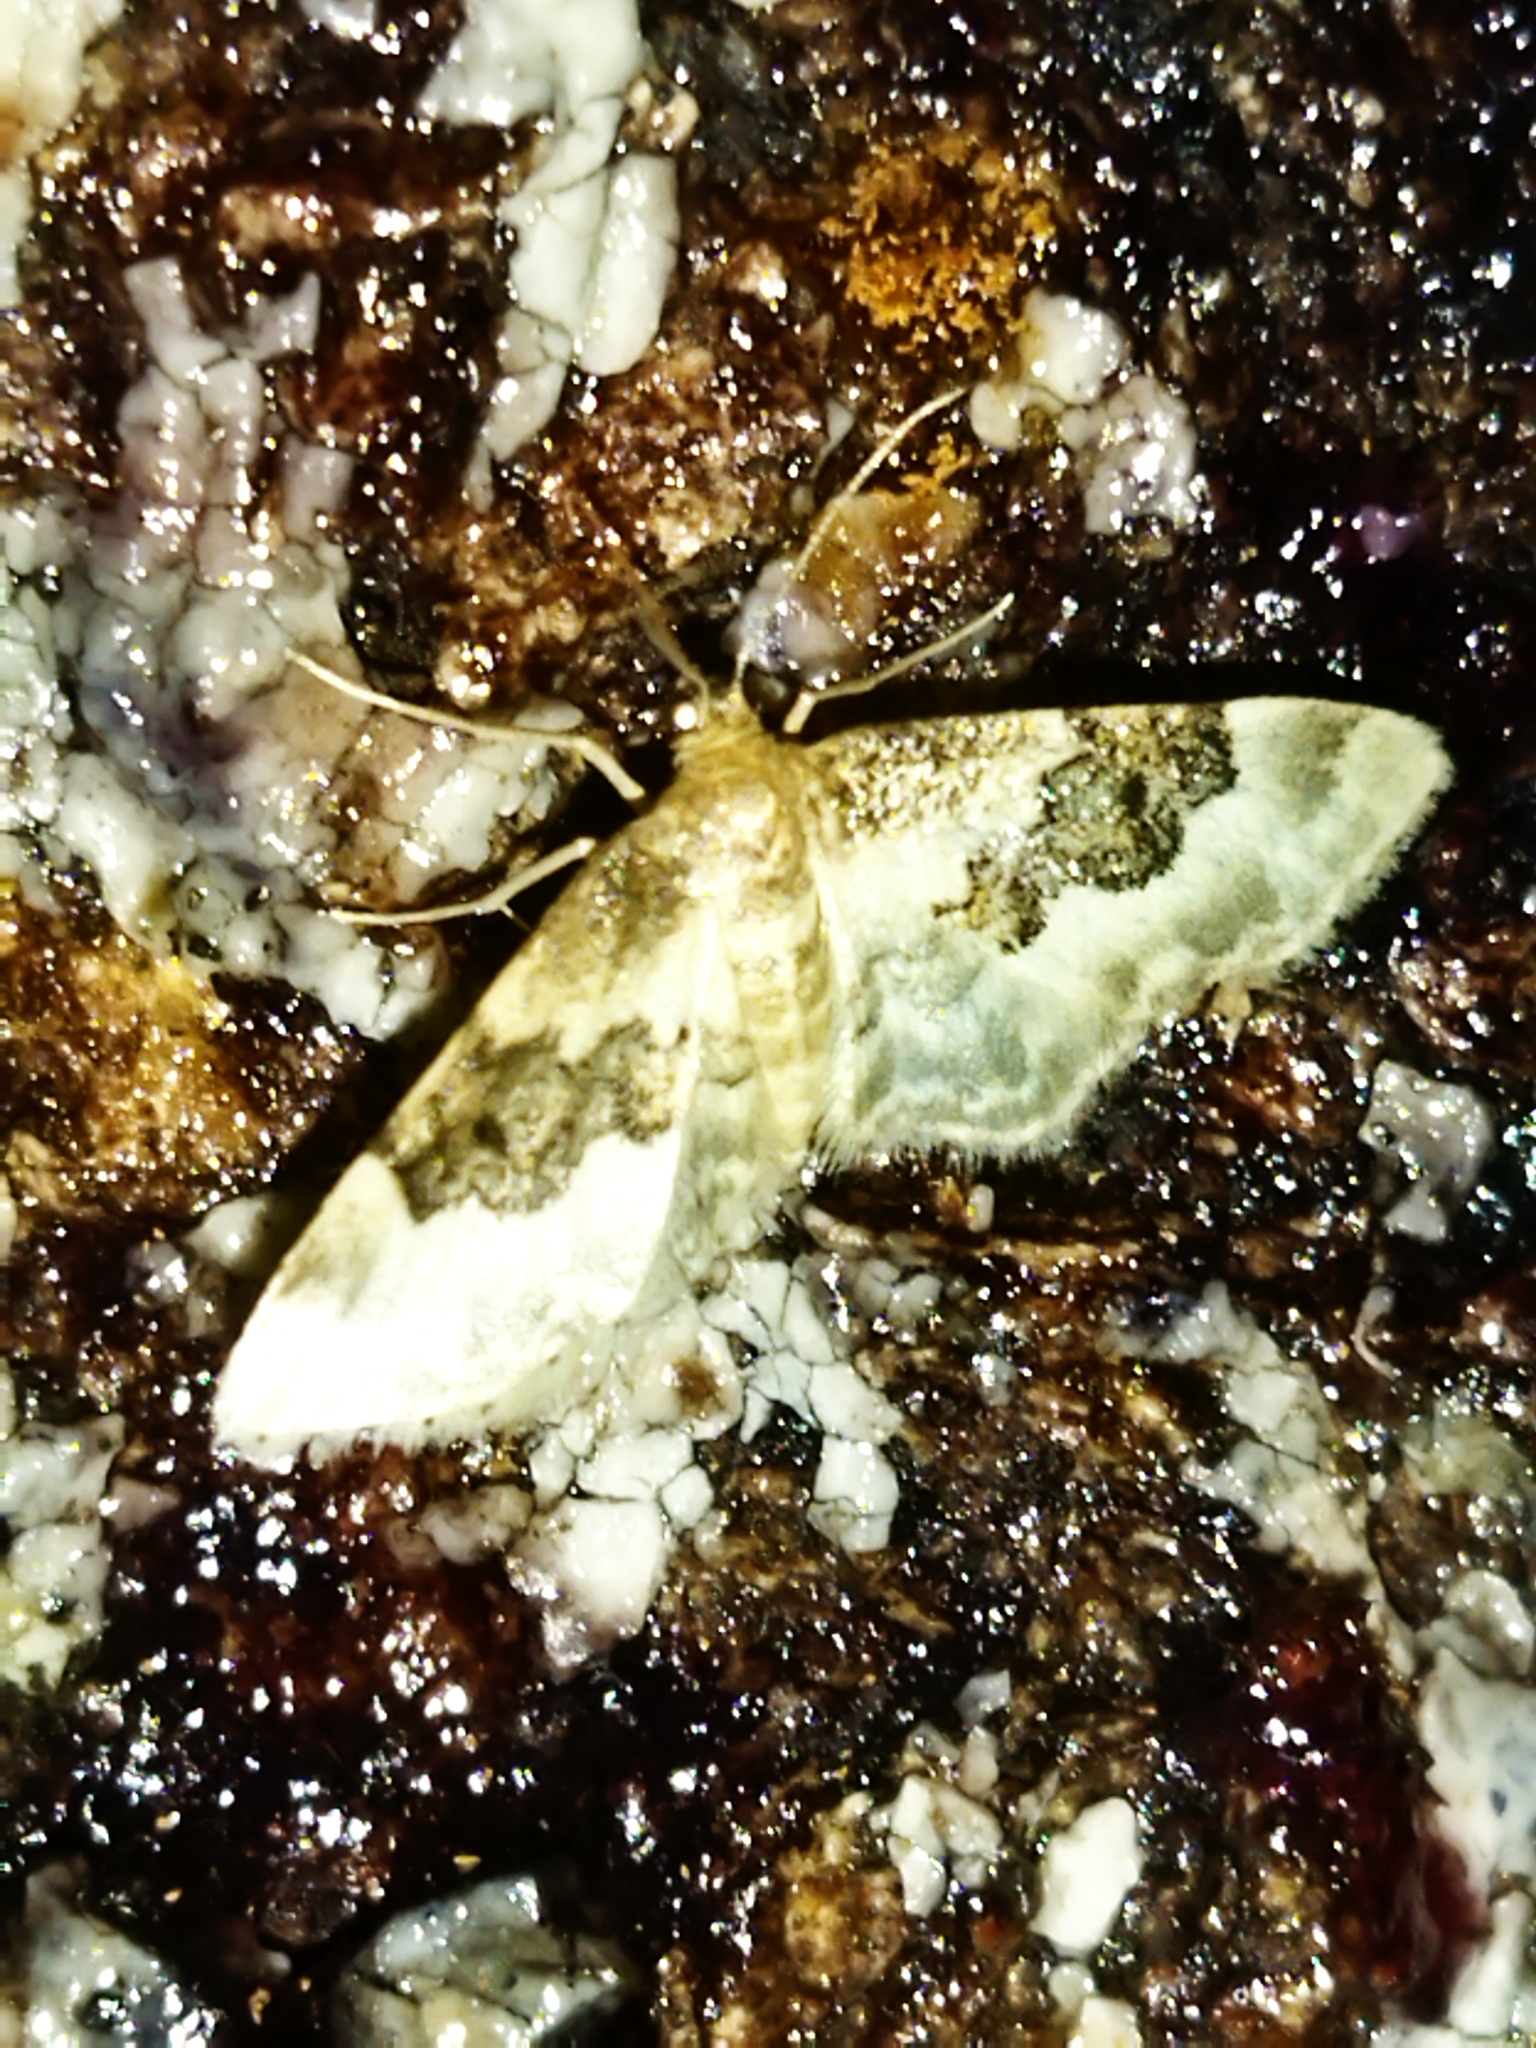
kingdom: Animalia
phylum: Arthropoda
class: Insecta
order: Lepidoptera
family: Geometridae
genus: Idaea
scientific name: Idaea rusticata
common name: Least carpet
